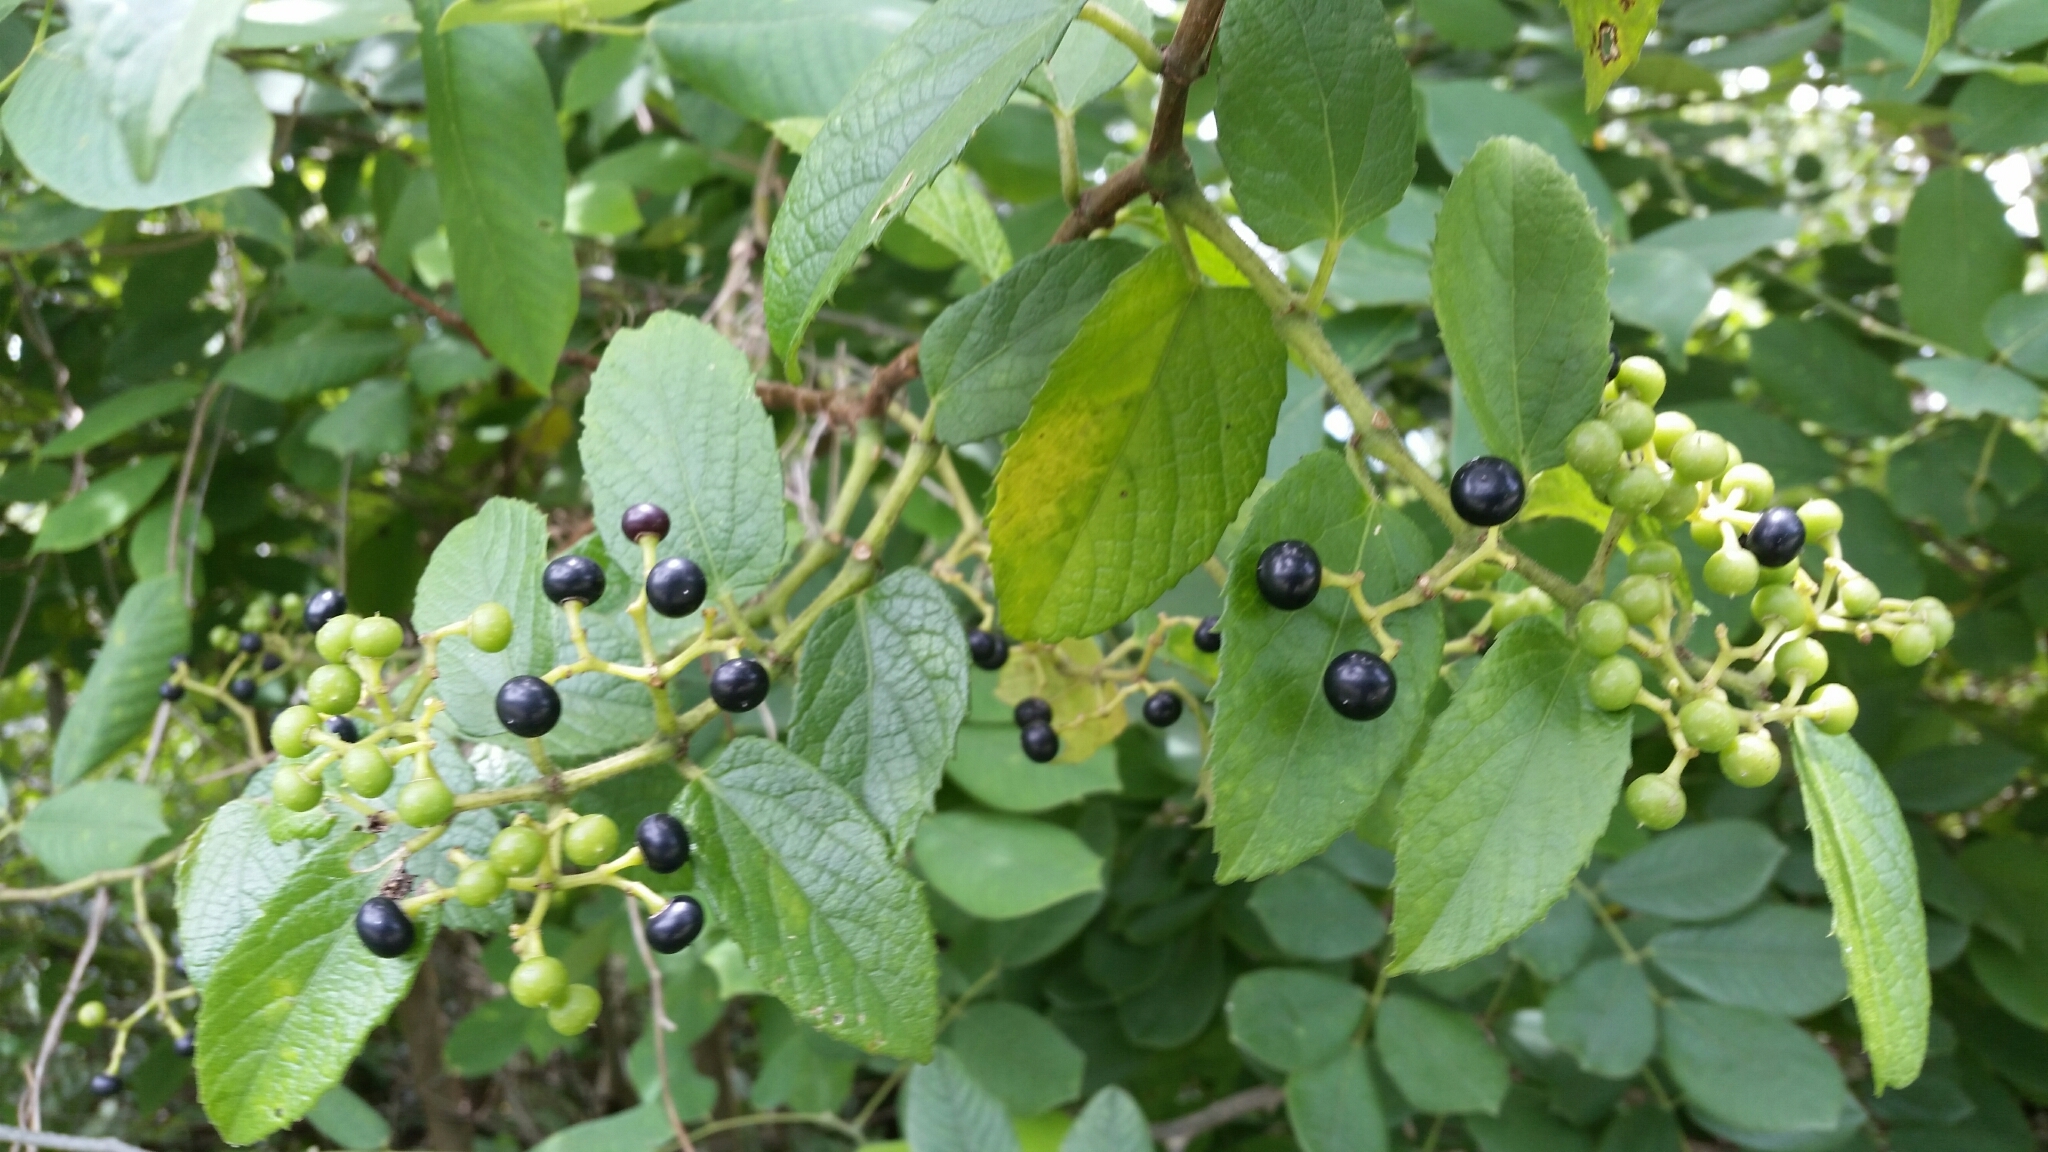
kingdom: Plantae
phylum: Tracheophyta
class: Magnoliopsida
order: Vitales
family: Vitaceae
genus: Cissus
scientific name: Cissus verticillata
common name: Princess vine
